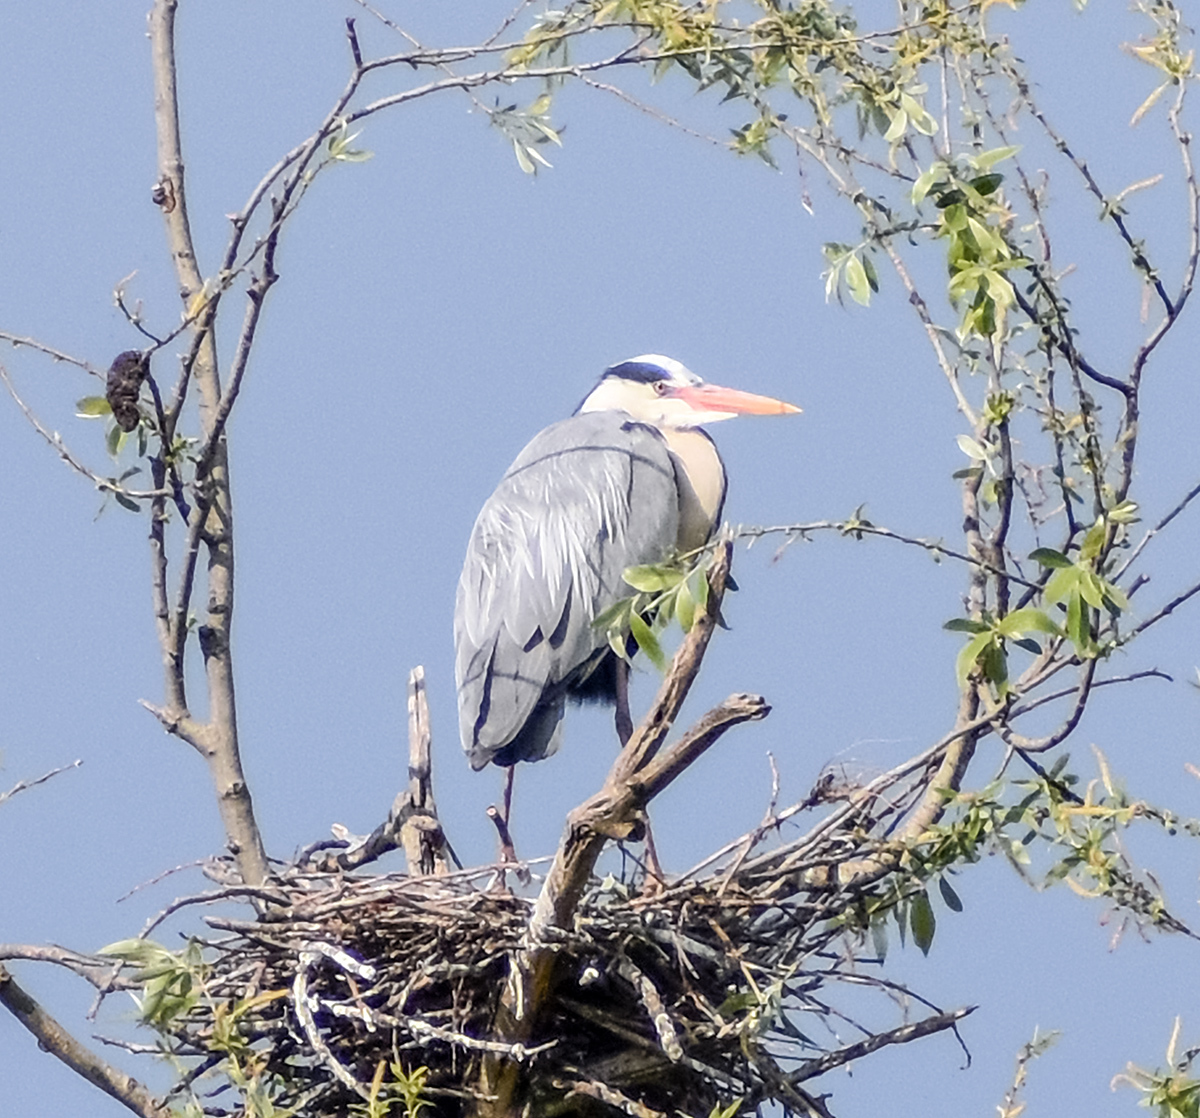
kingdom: Animalia
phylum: Chordata
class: Aves
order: Pelecaniformes
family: Ardeidae
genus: Ardea
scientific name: Ardea cinerea
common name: Grey heron
